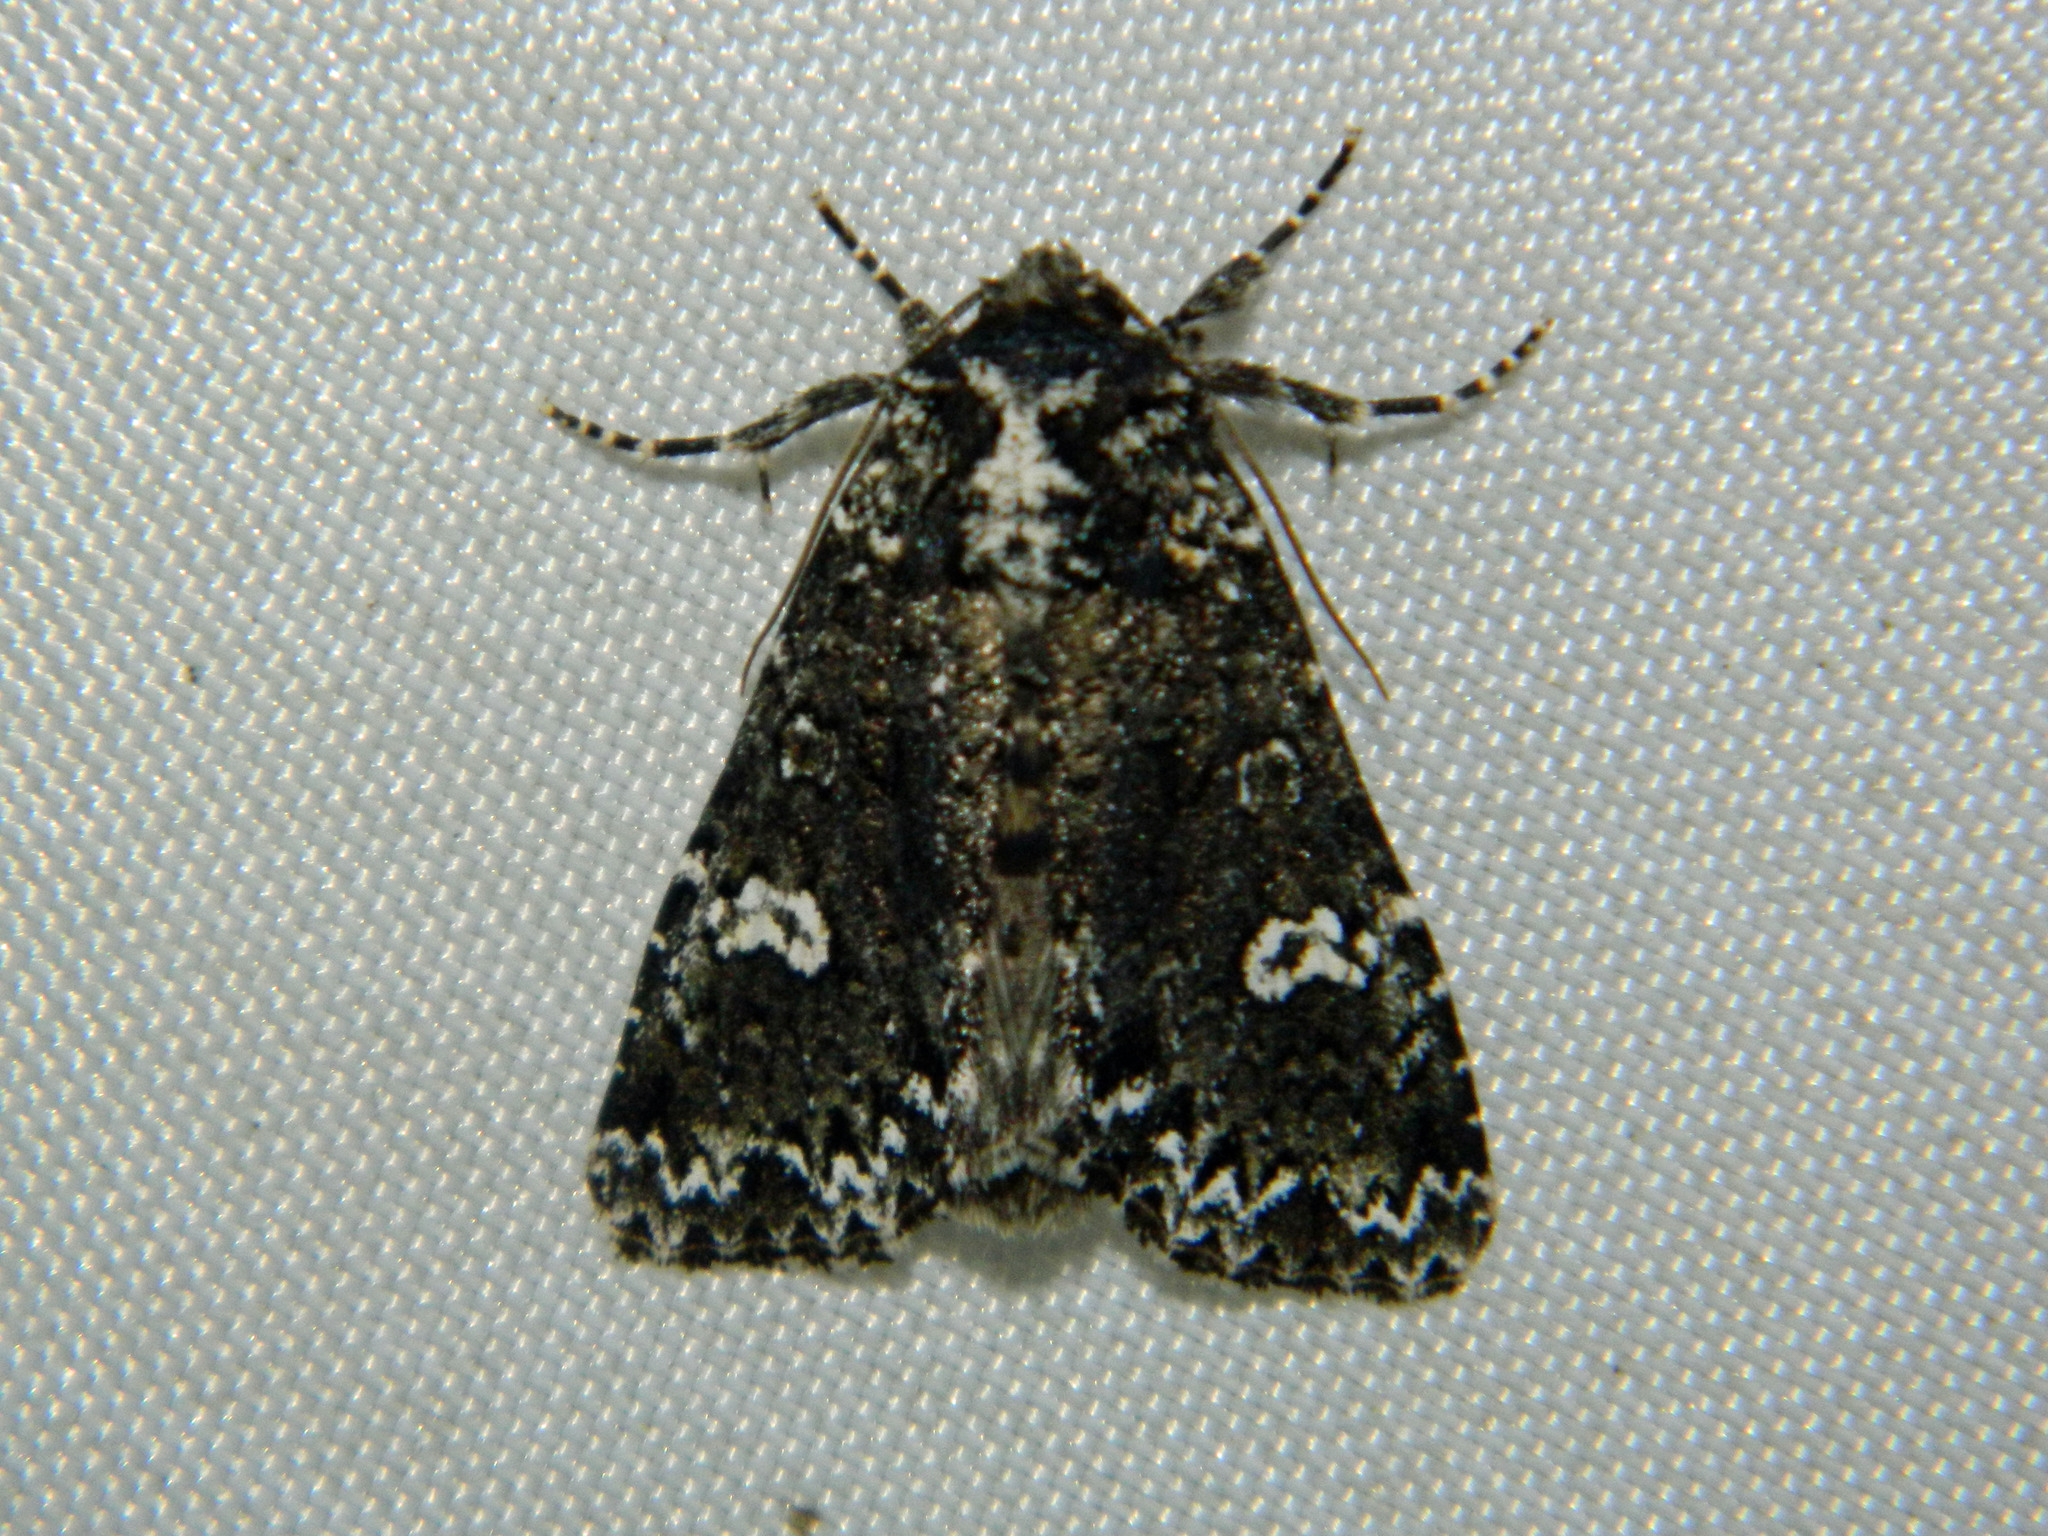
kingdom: Animalia
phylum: Arthropoda
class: Insecta
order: Lepidoptera
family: Noctuidae
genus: Melanchra
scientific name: Melanchra adjuncta
